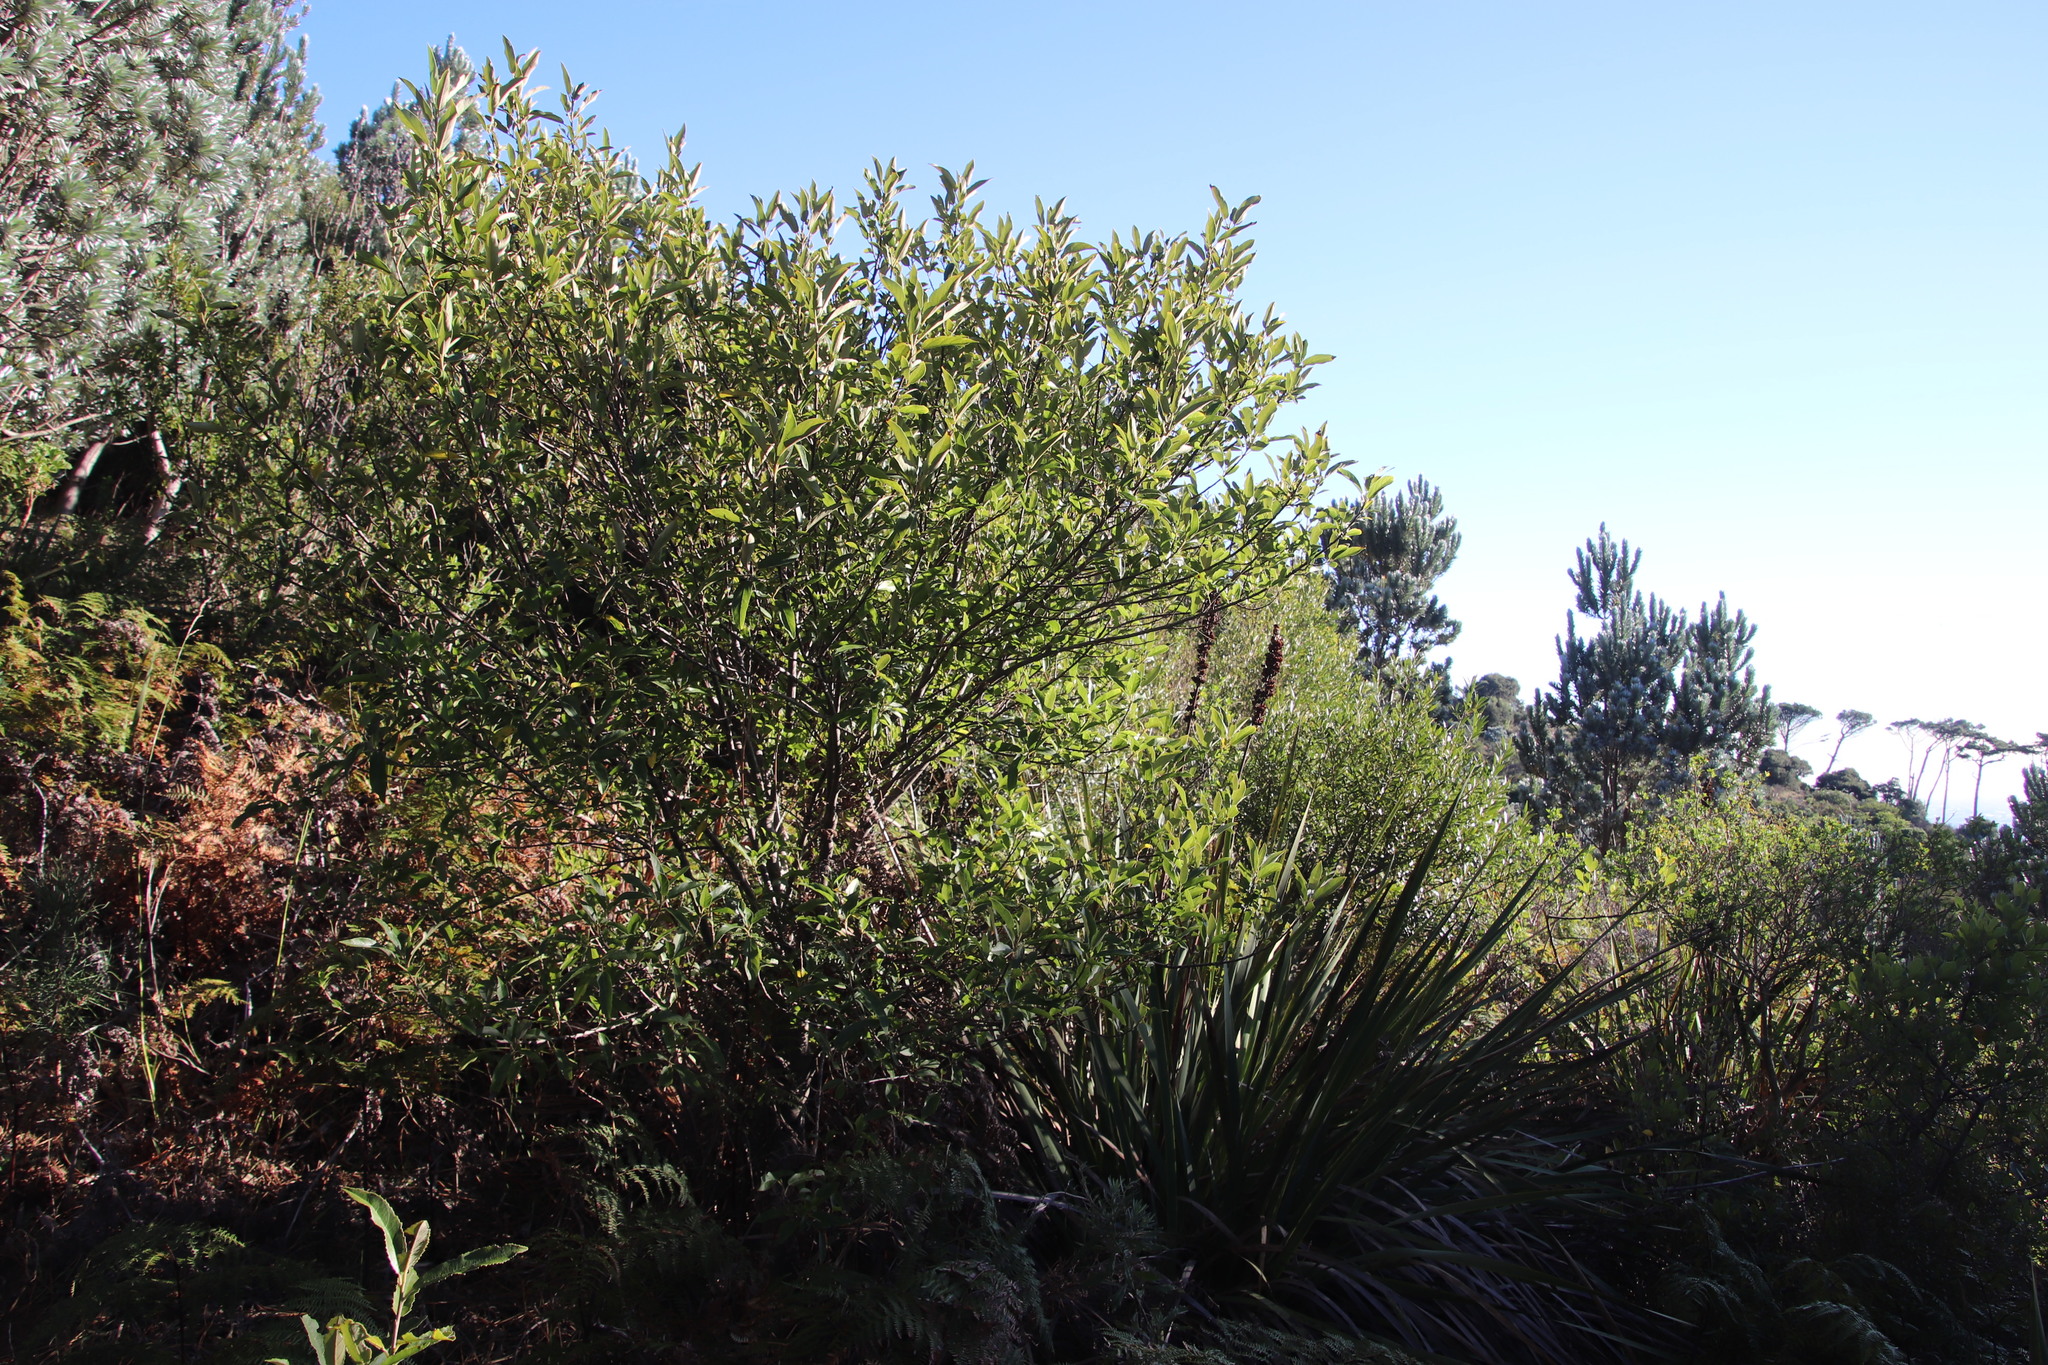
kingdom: Plantae
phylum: Tracheophyta
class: Magnoliopsida
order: Malpighiales
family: Achariaceae
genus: Kiggelaria
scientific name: Kiggelaria africana
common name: Wild peach
